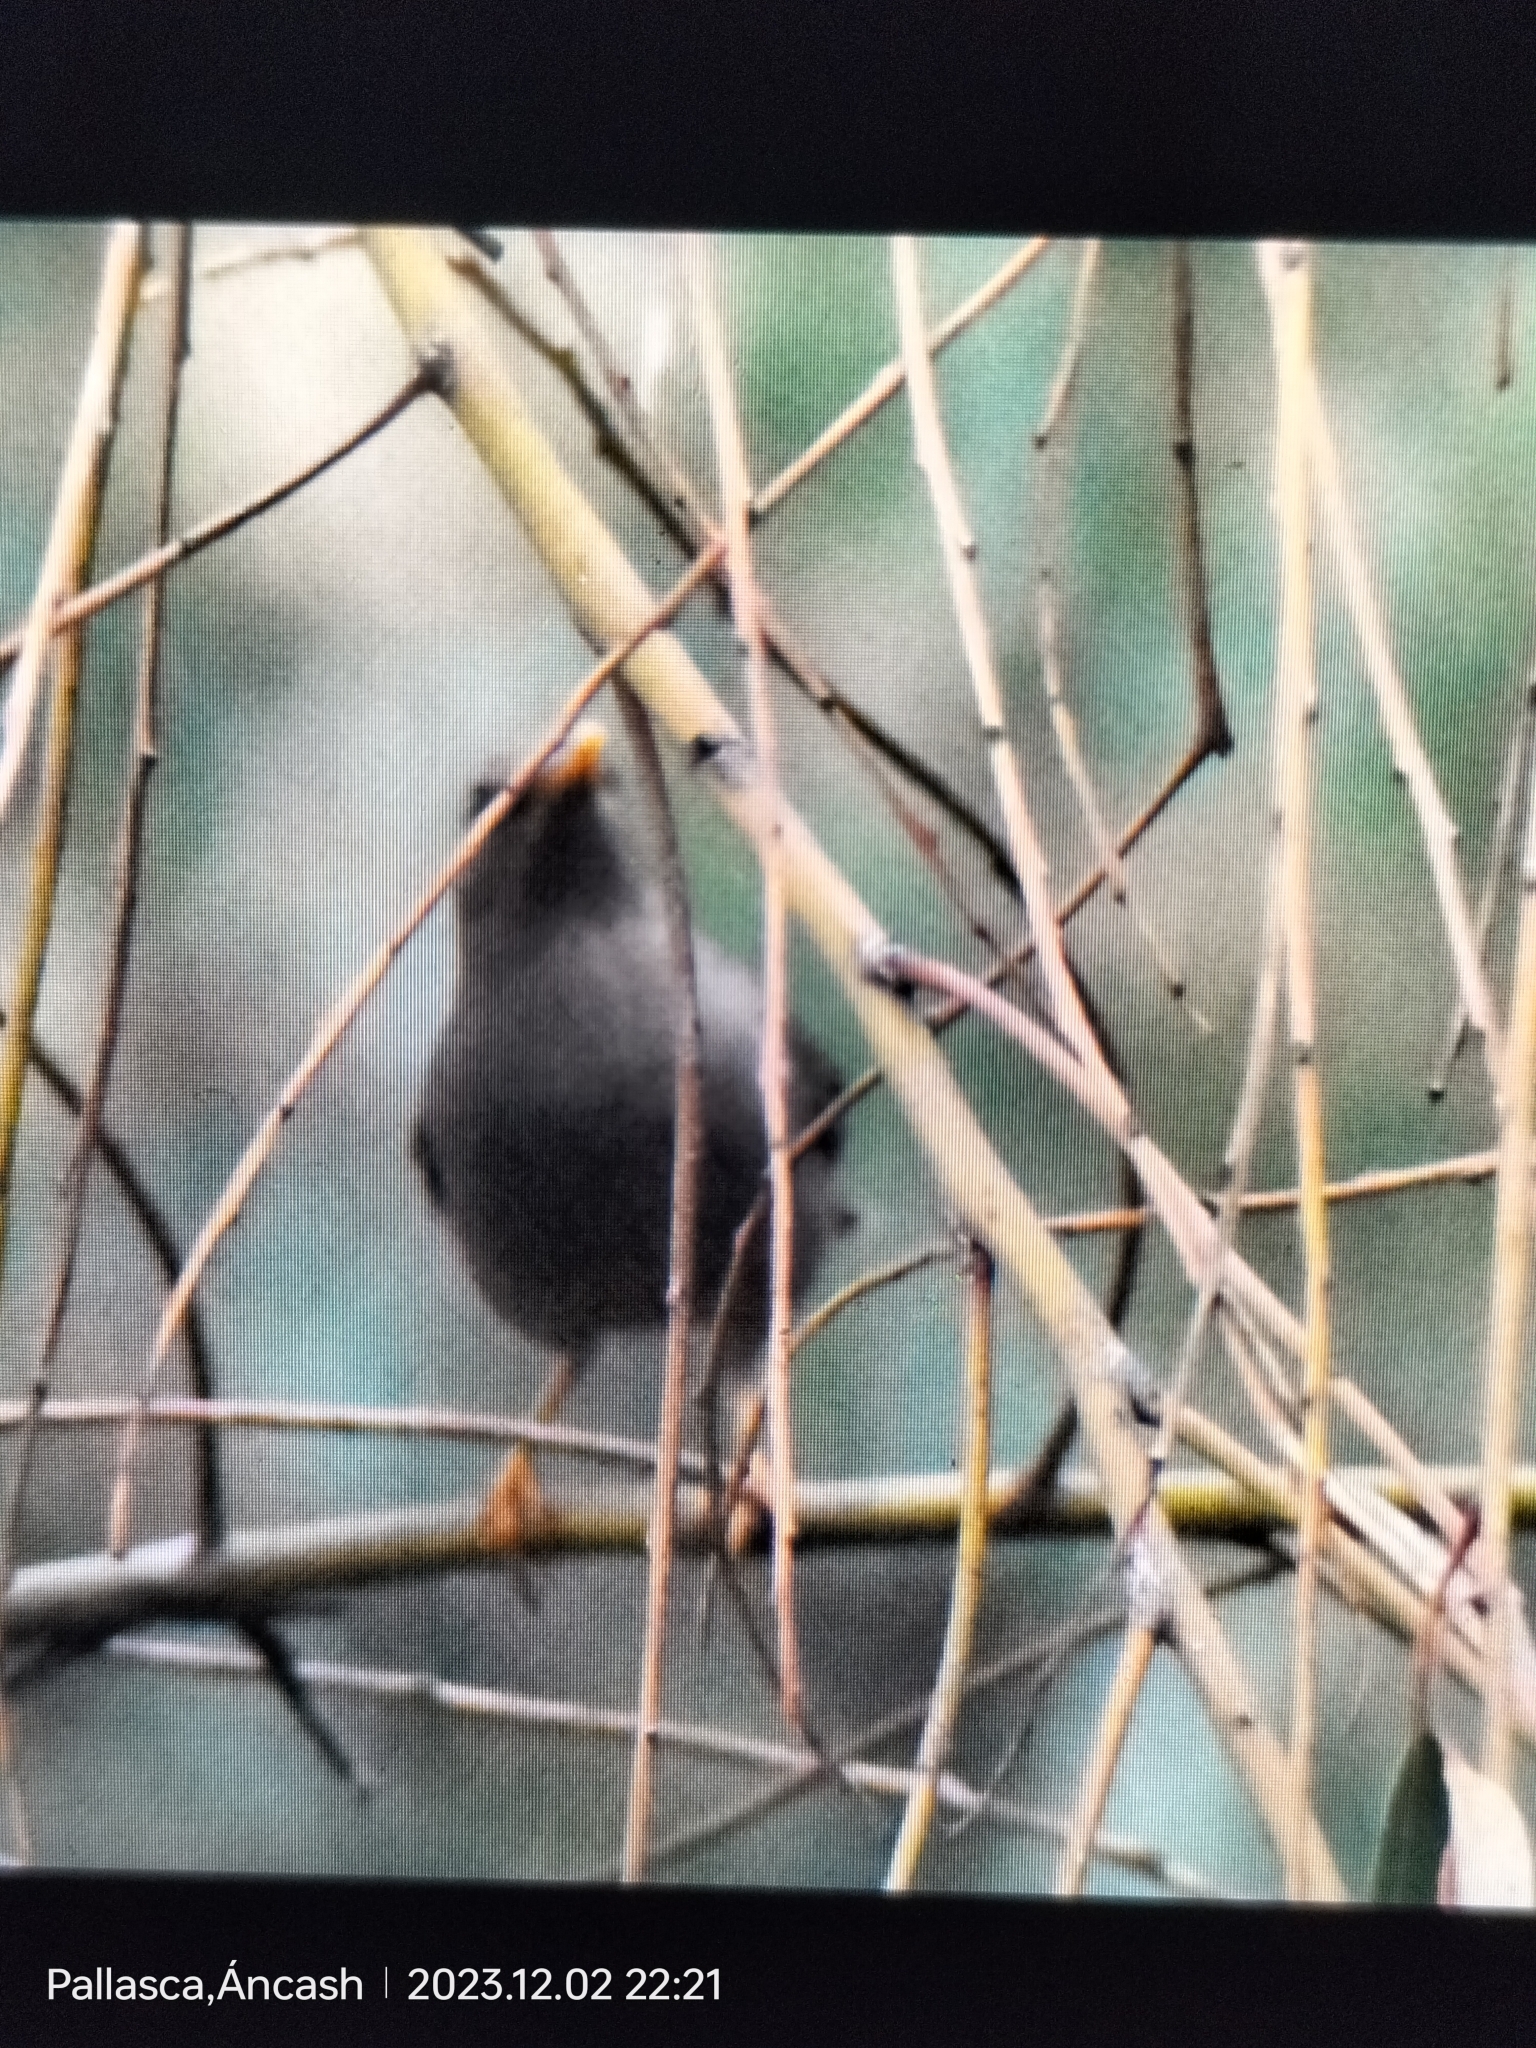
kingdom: Animalia
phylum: Chordata
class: Aves
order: Passeriformes
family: Turdidae
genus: Turdus
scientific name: Turdus chiguanco
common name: Chiguanco thrush
